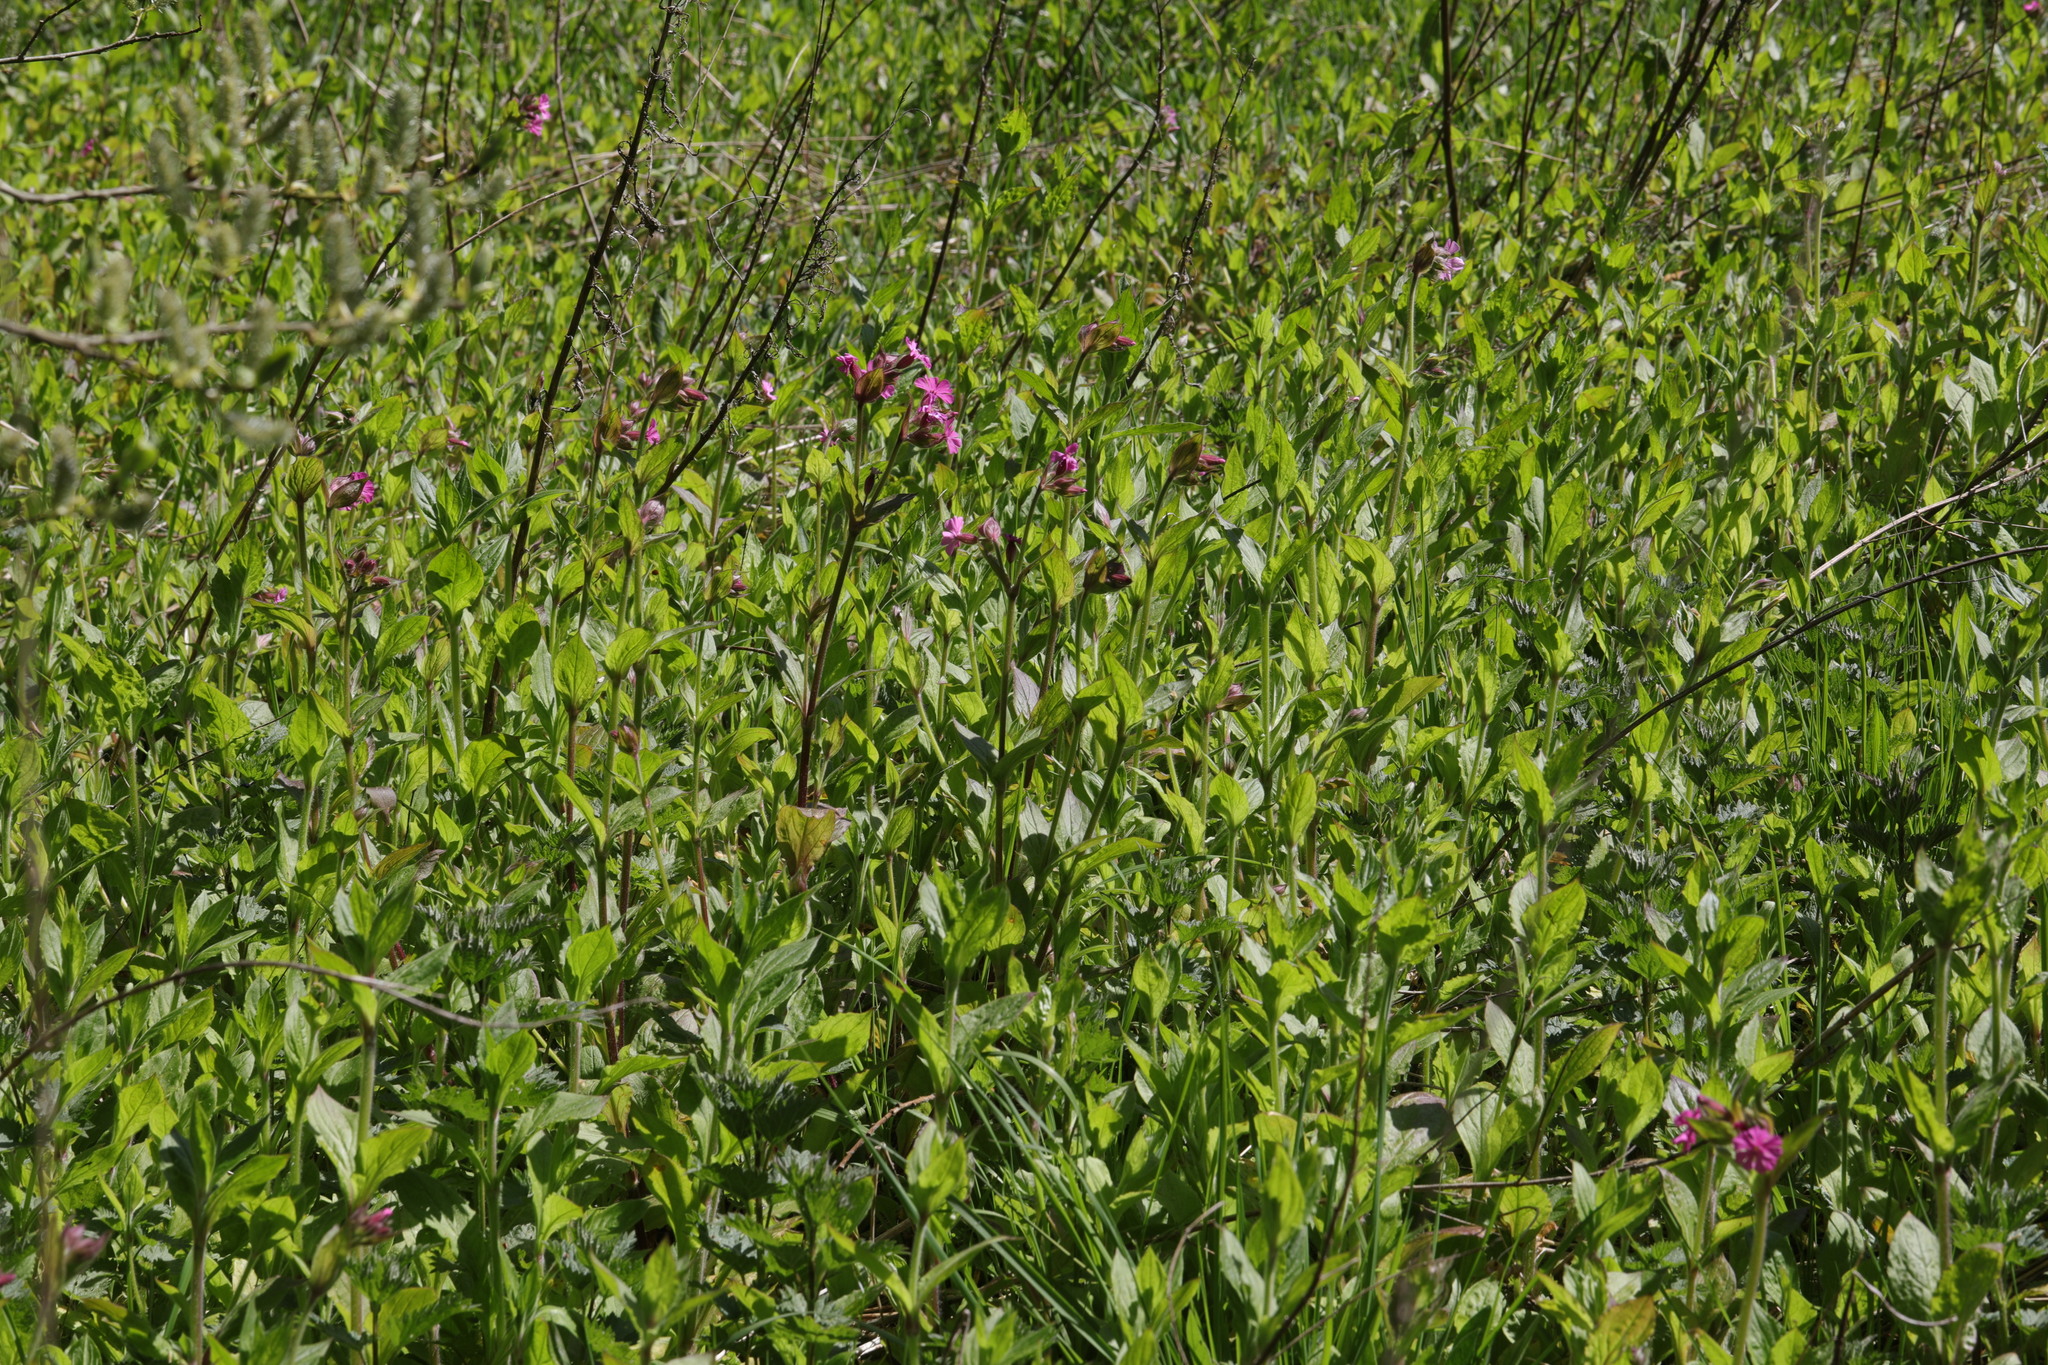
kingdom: Plantae
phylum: Tracheophyta
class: Magnoliopsida
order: Caryophyllales
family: Caryophyllaceae
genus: Silene
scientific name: Silene dioica
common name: Red campion
